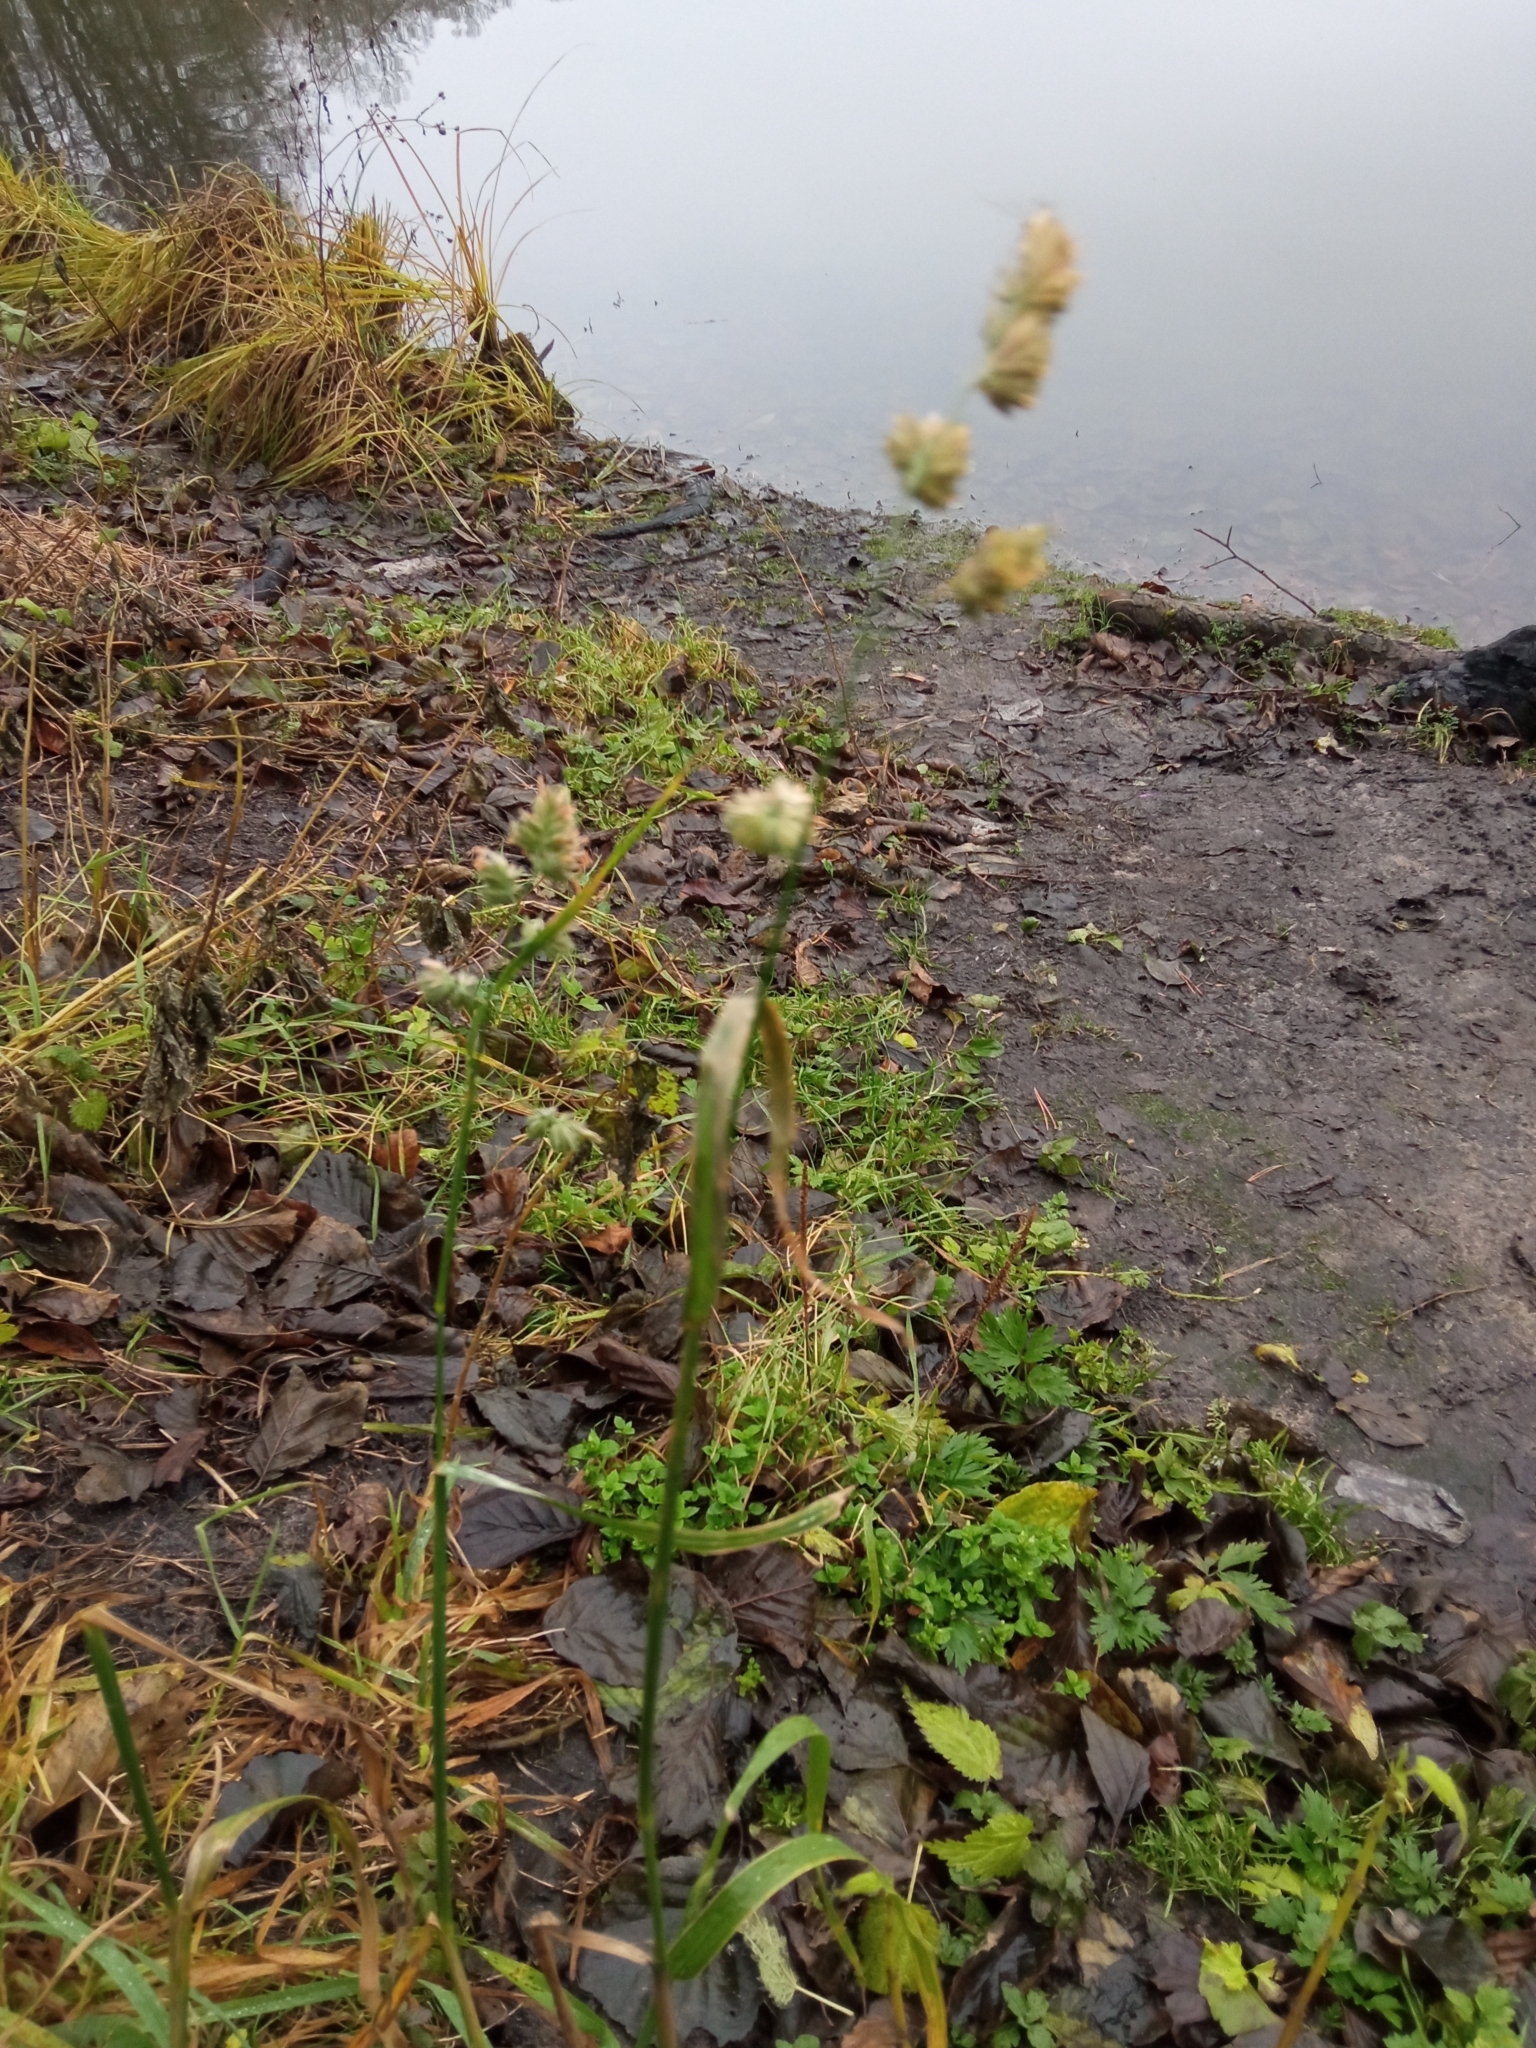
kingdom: Plantae
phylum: Tracheophyta
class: Liliopsida
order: Poales
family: Poaceae
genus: Dactylis
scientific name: Dactylis glomerata
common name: Orchardgrass
